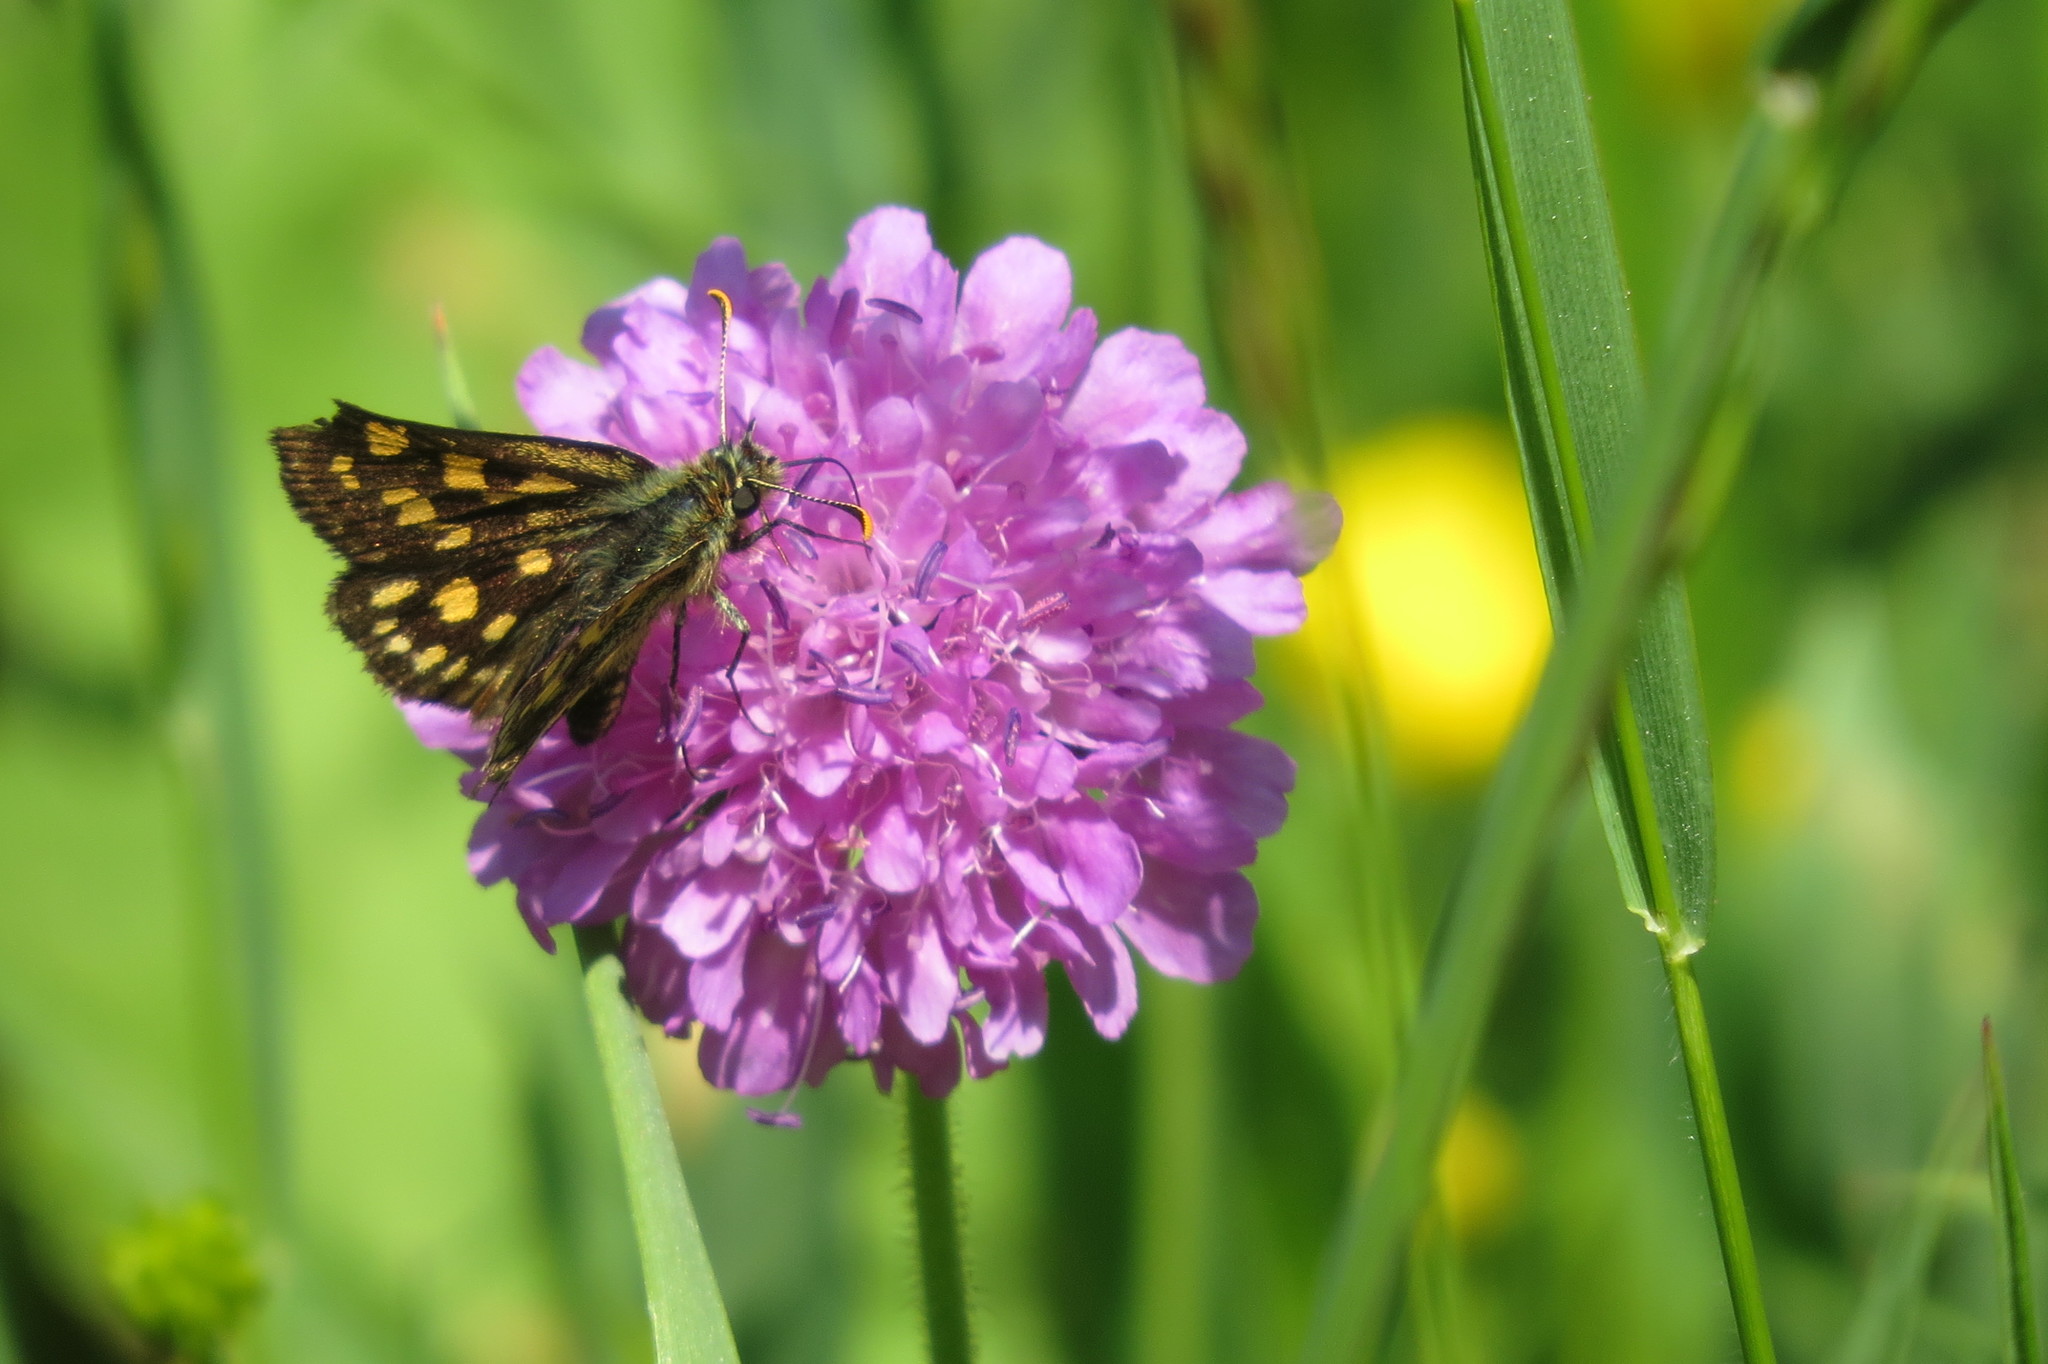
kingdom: Animalia
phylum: Arthropoda
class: Insecta
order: Lepidoptera
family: Hesperiidae
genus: Carterocephalus
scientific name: Carterocephalus palaemon
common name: Chequered skipper
